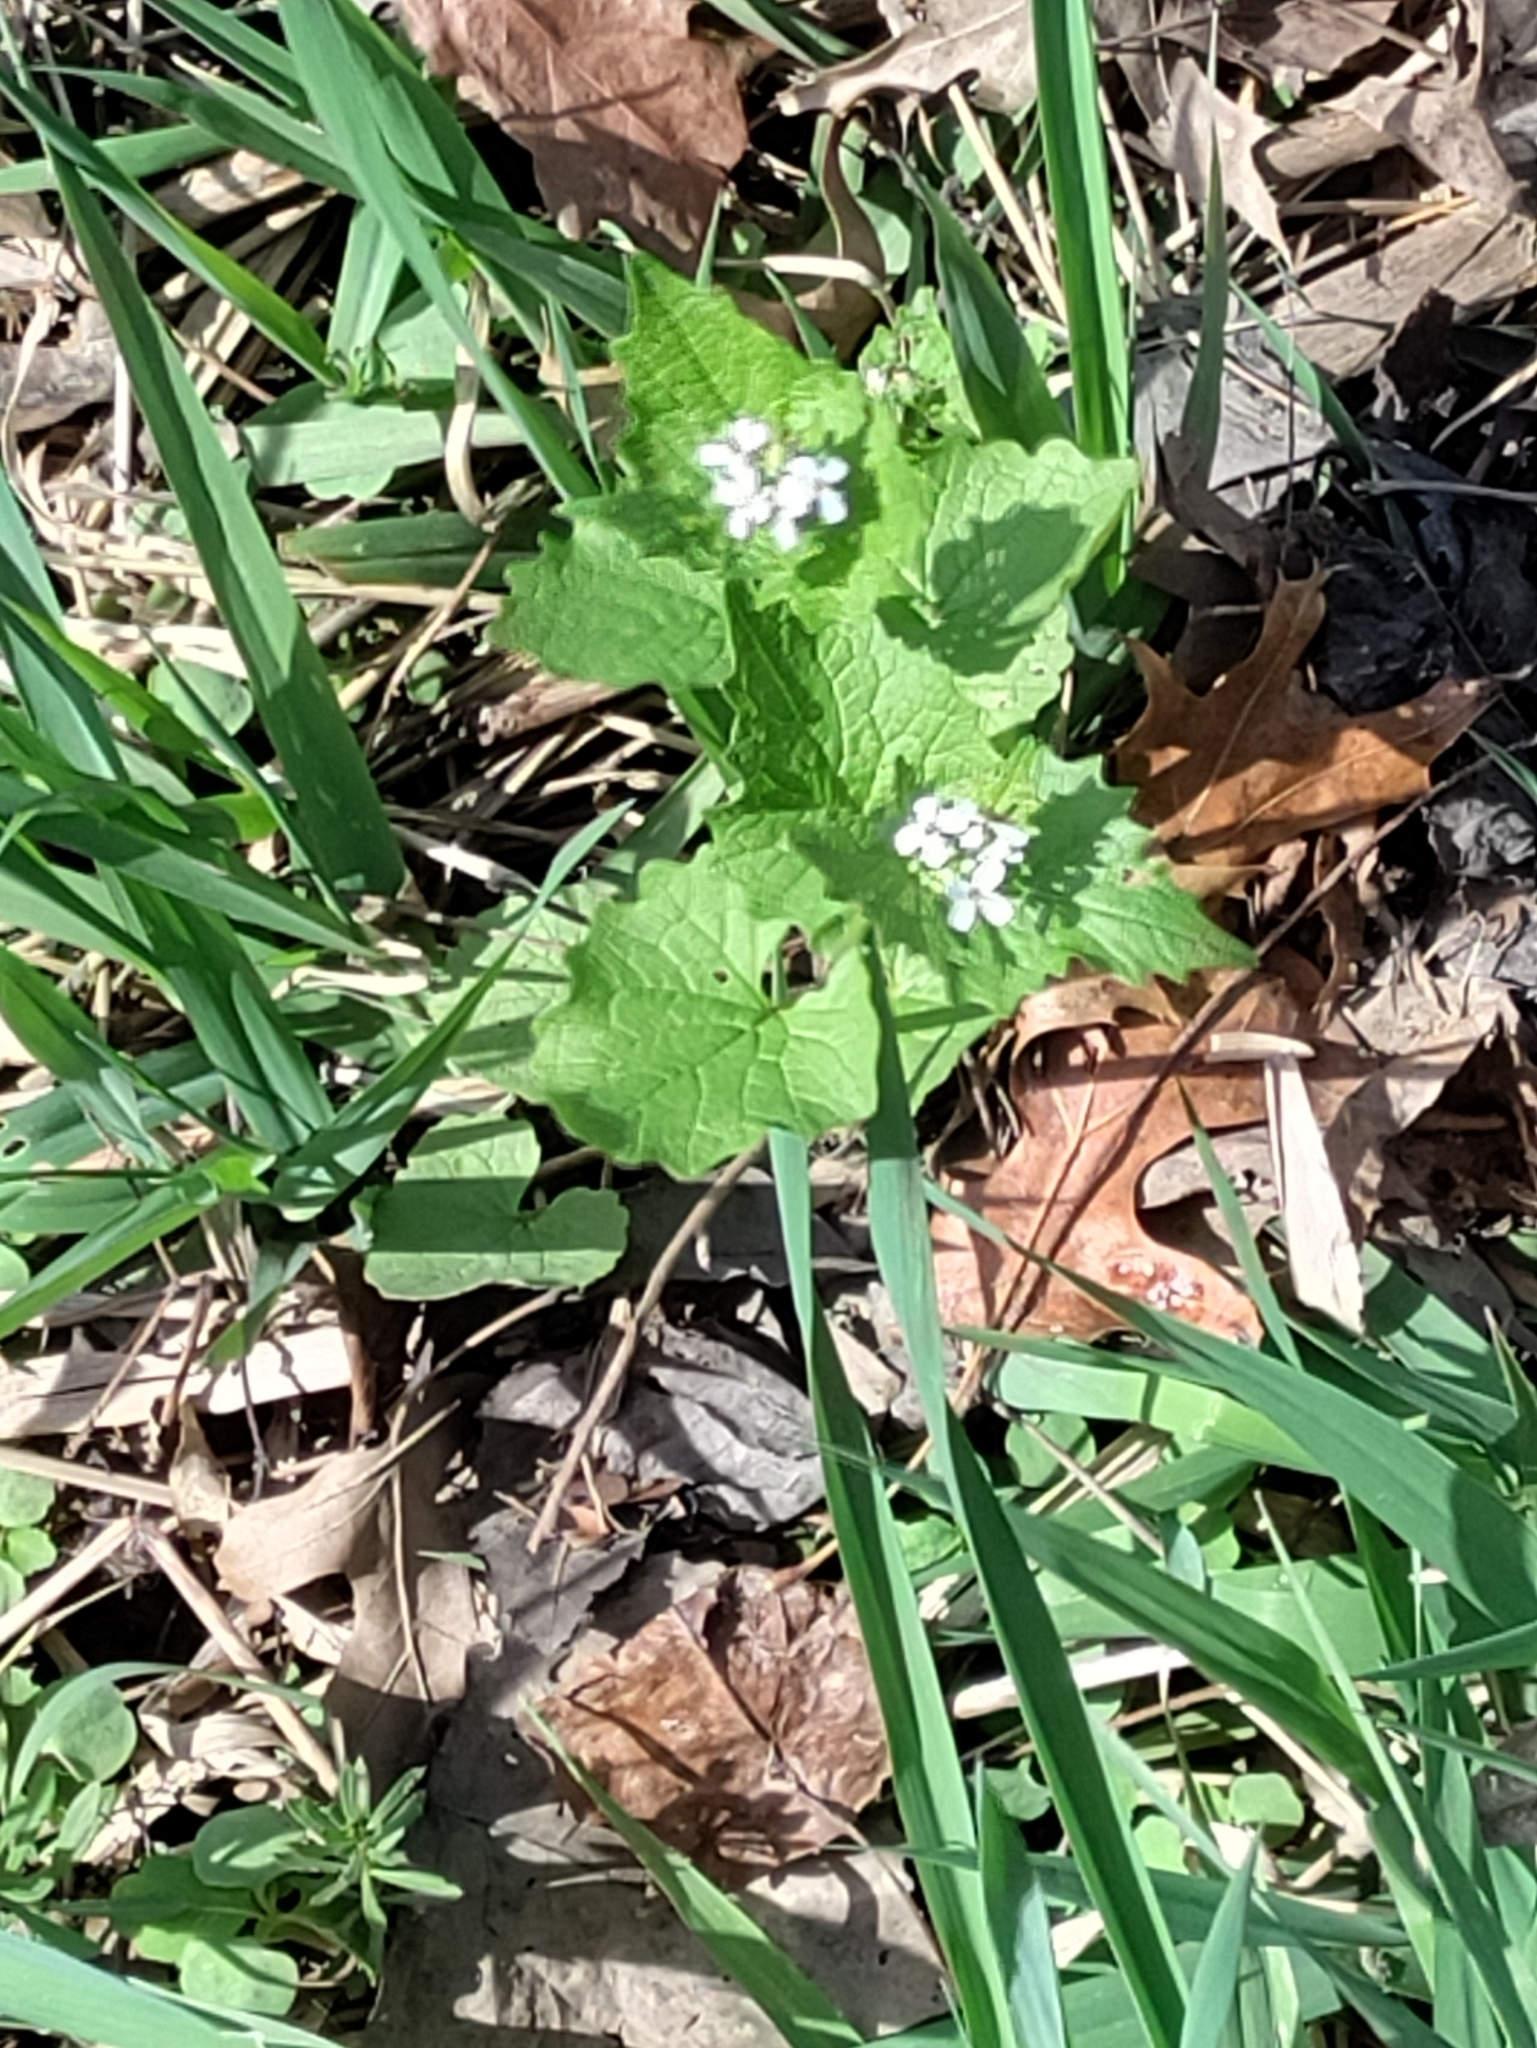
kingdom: Plantae
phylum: Tracheophyta
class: Magnoliopsida
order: Brassicales
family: Brassicaceae
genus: Alliaria
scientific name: Alliaria petiolata
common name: Garlic mustard
